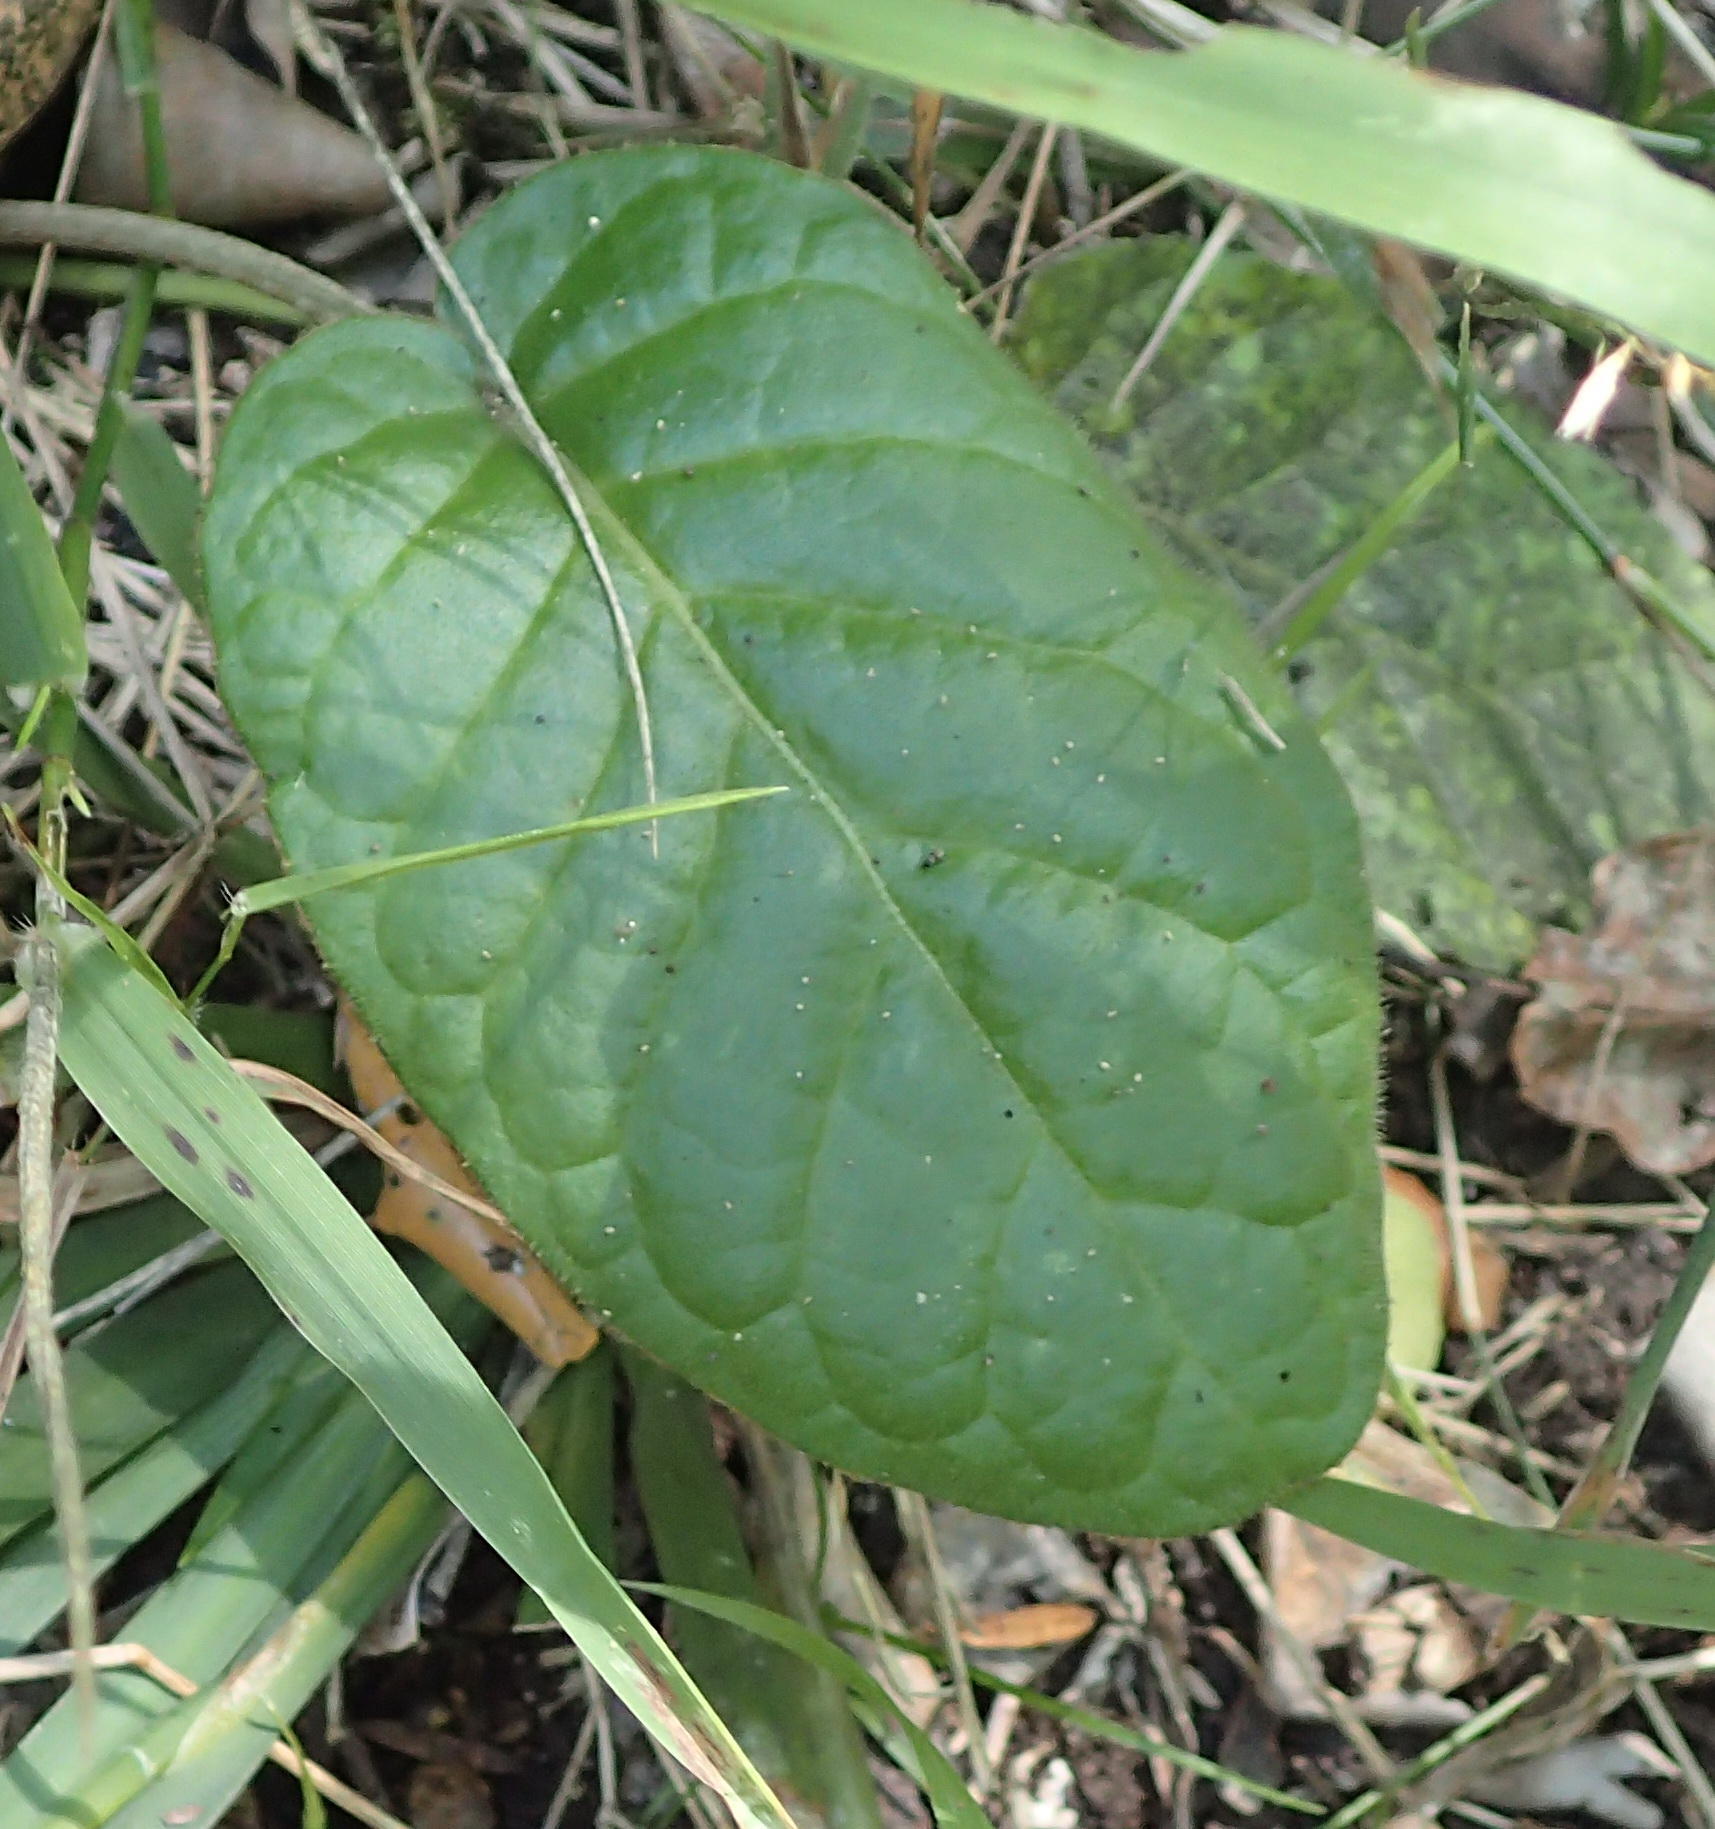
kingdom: Plantae
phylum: Tracheophyta
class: Magnoliopsida
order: Asterales
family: Asteraceae
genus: Piloselloides
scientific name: Piloselloides cordata
